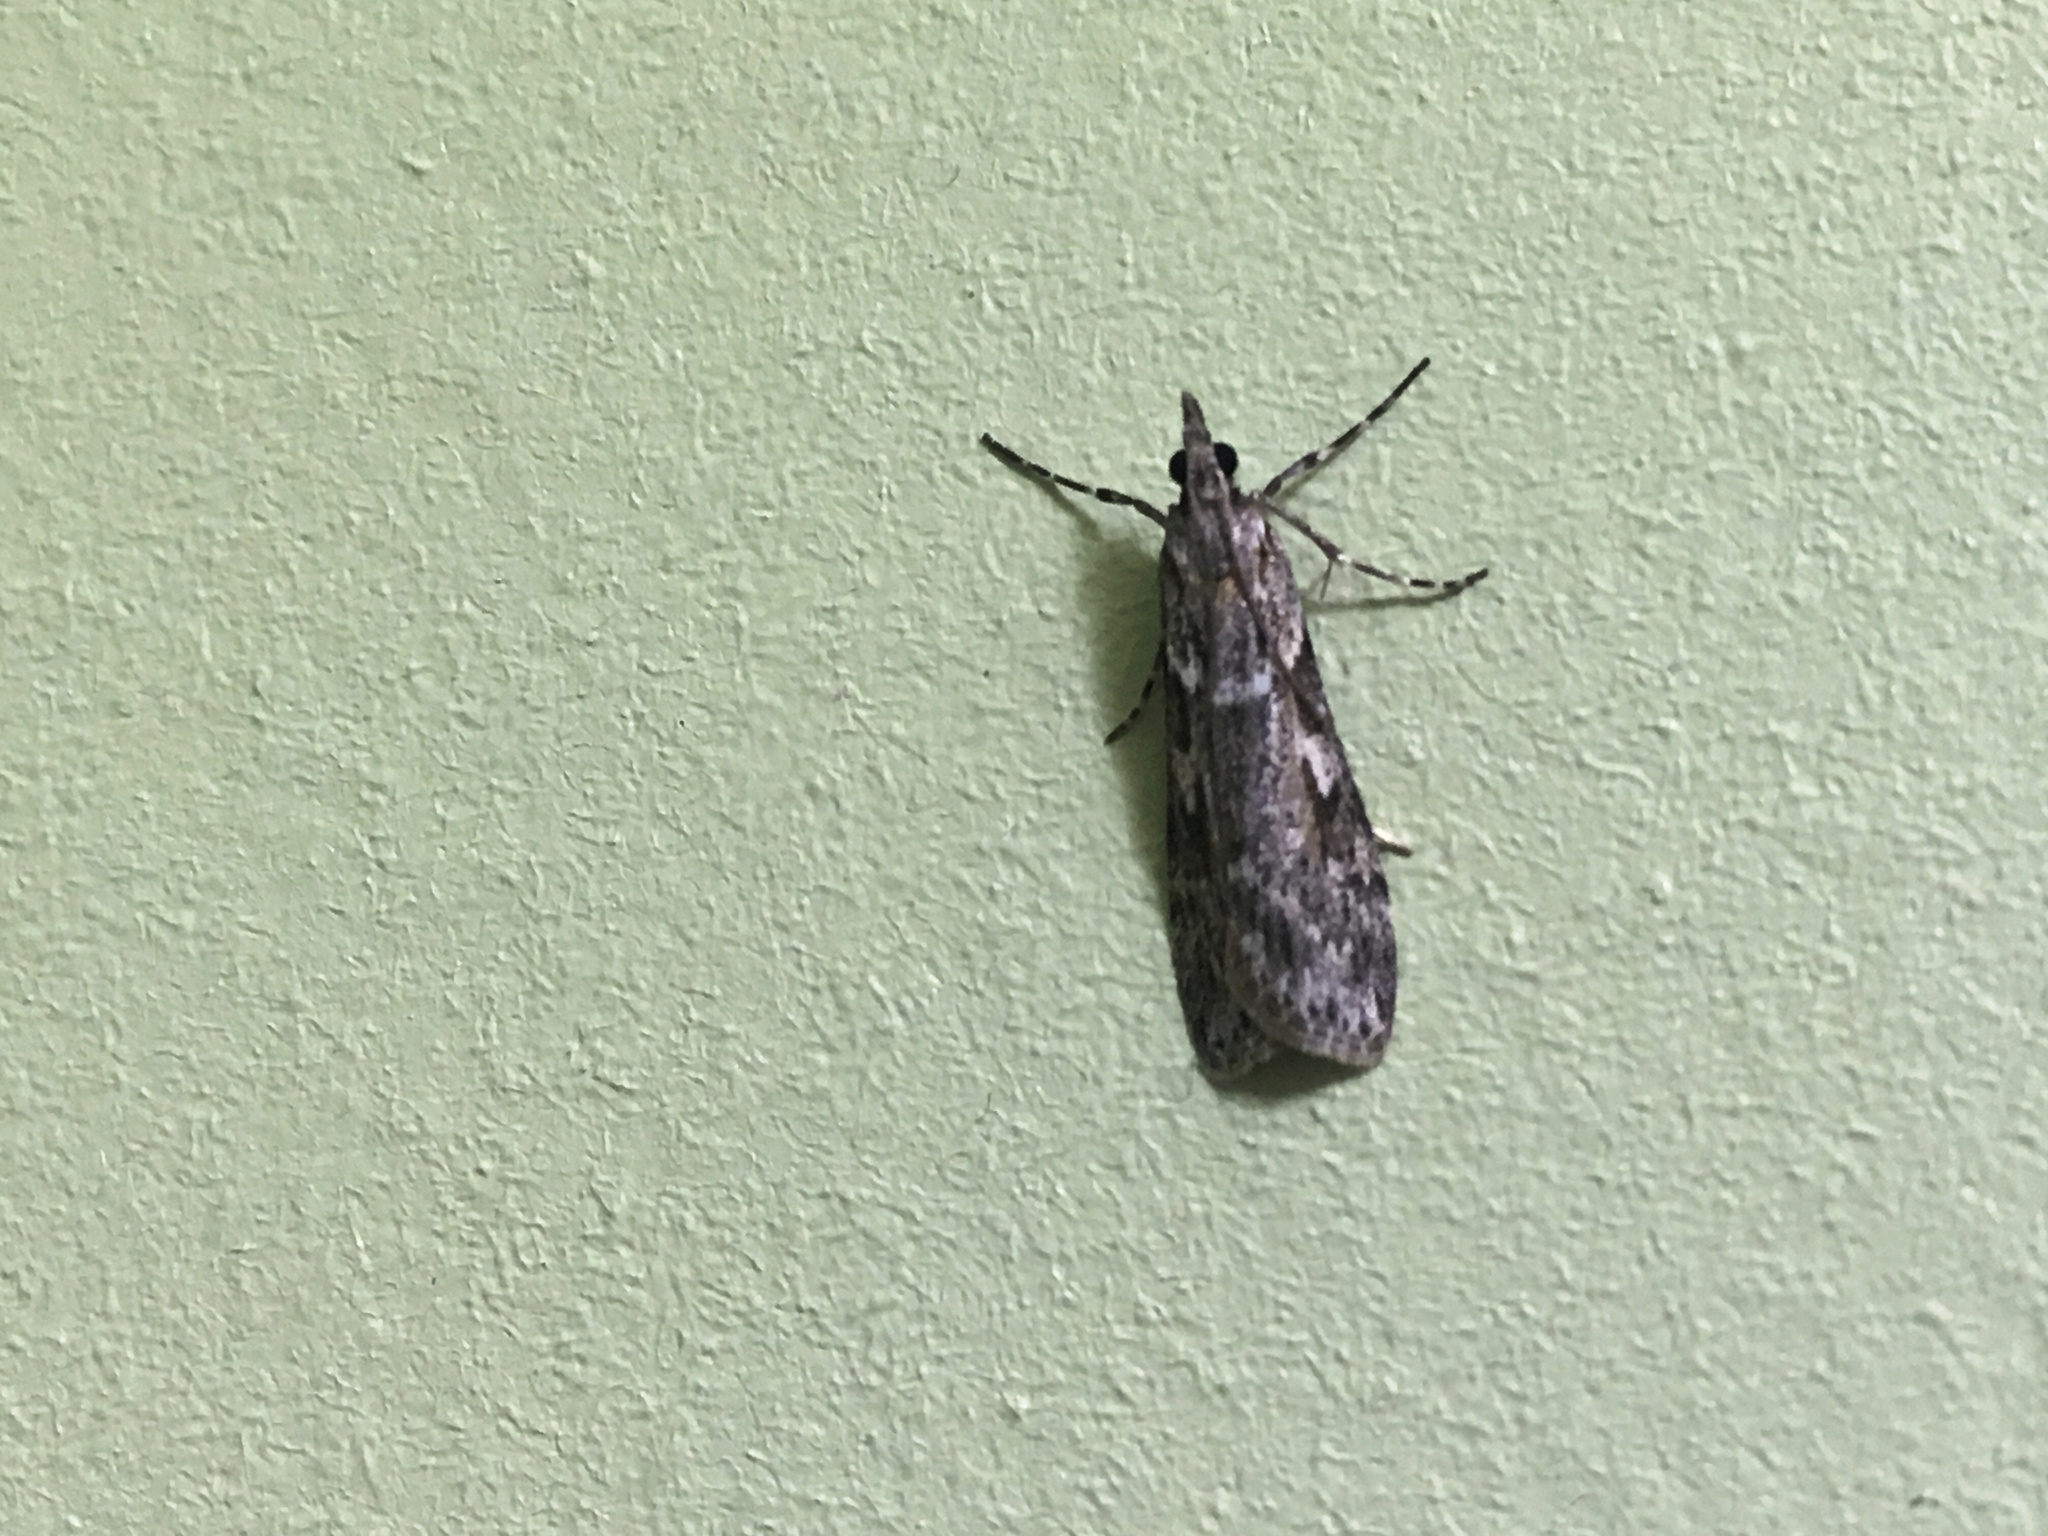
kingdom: Animalia
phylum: Arthropoda
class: Insecta
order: Lepidoptera
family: Crambidae
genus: Scoparia
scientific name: Scoparia halopis
